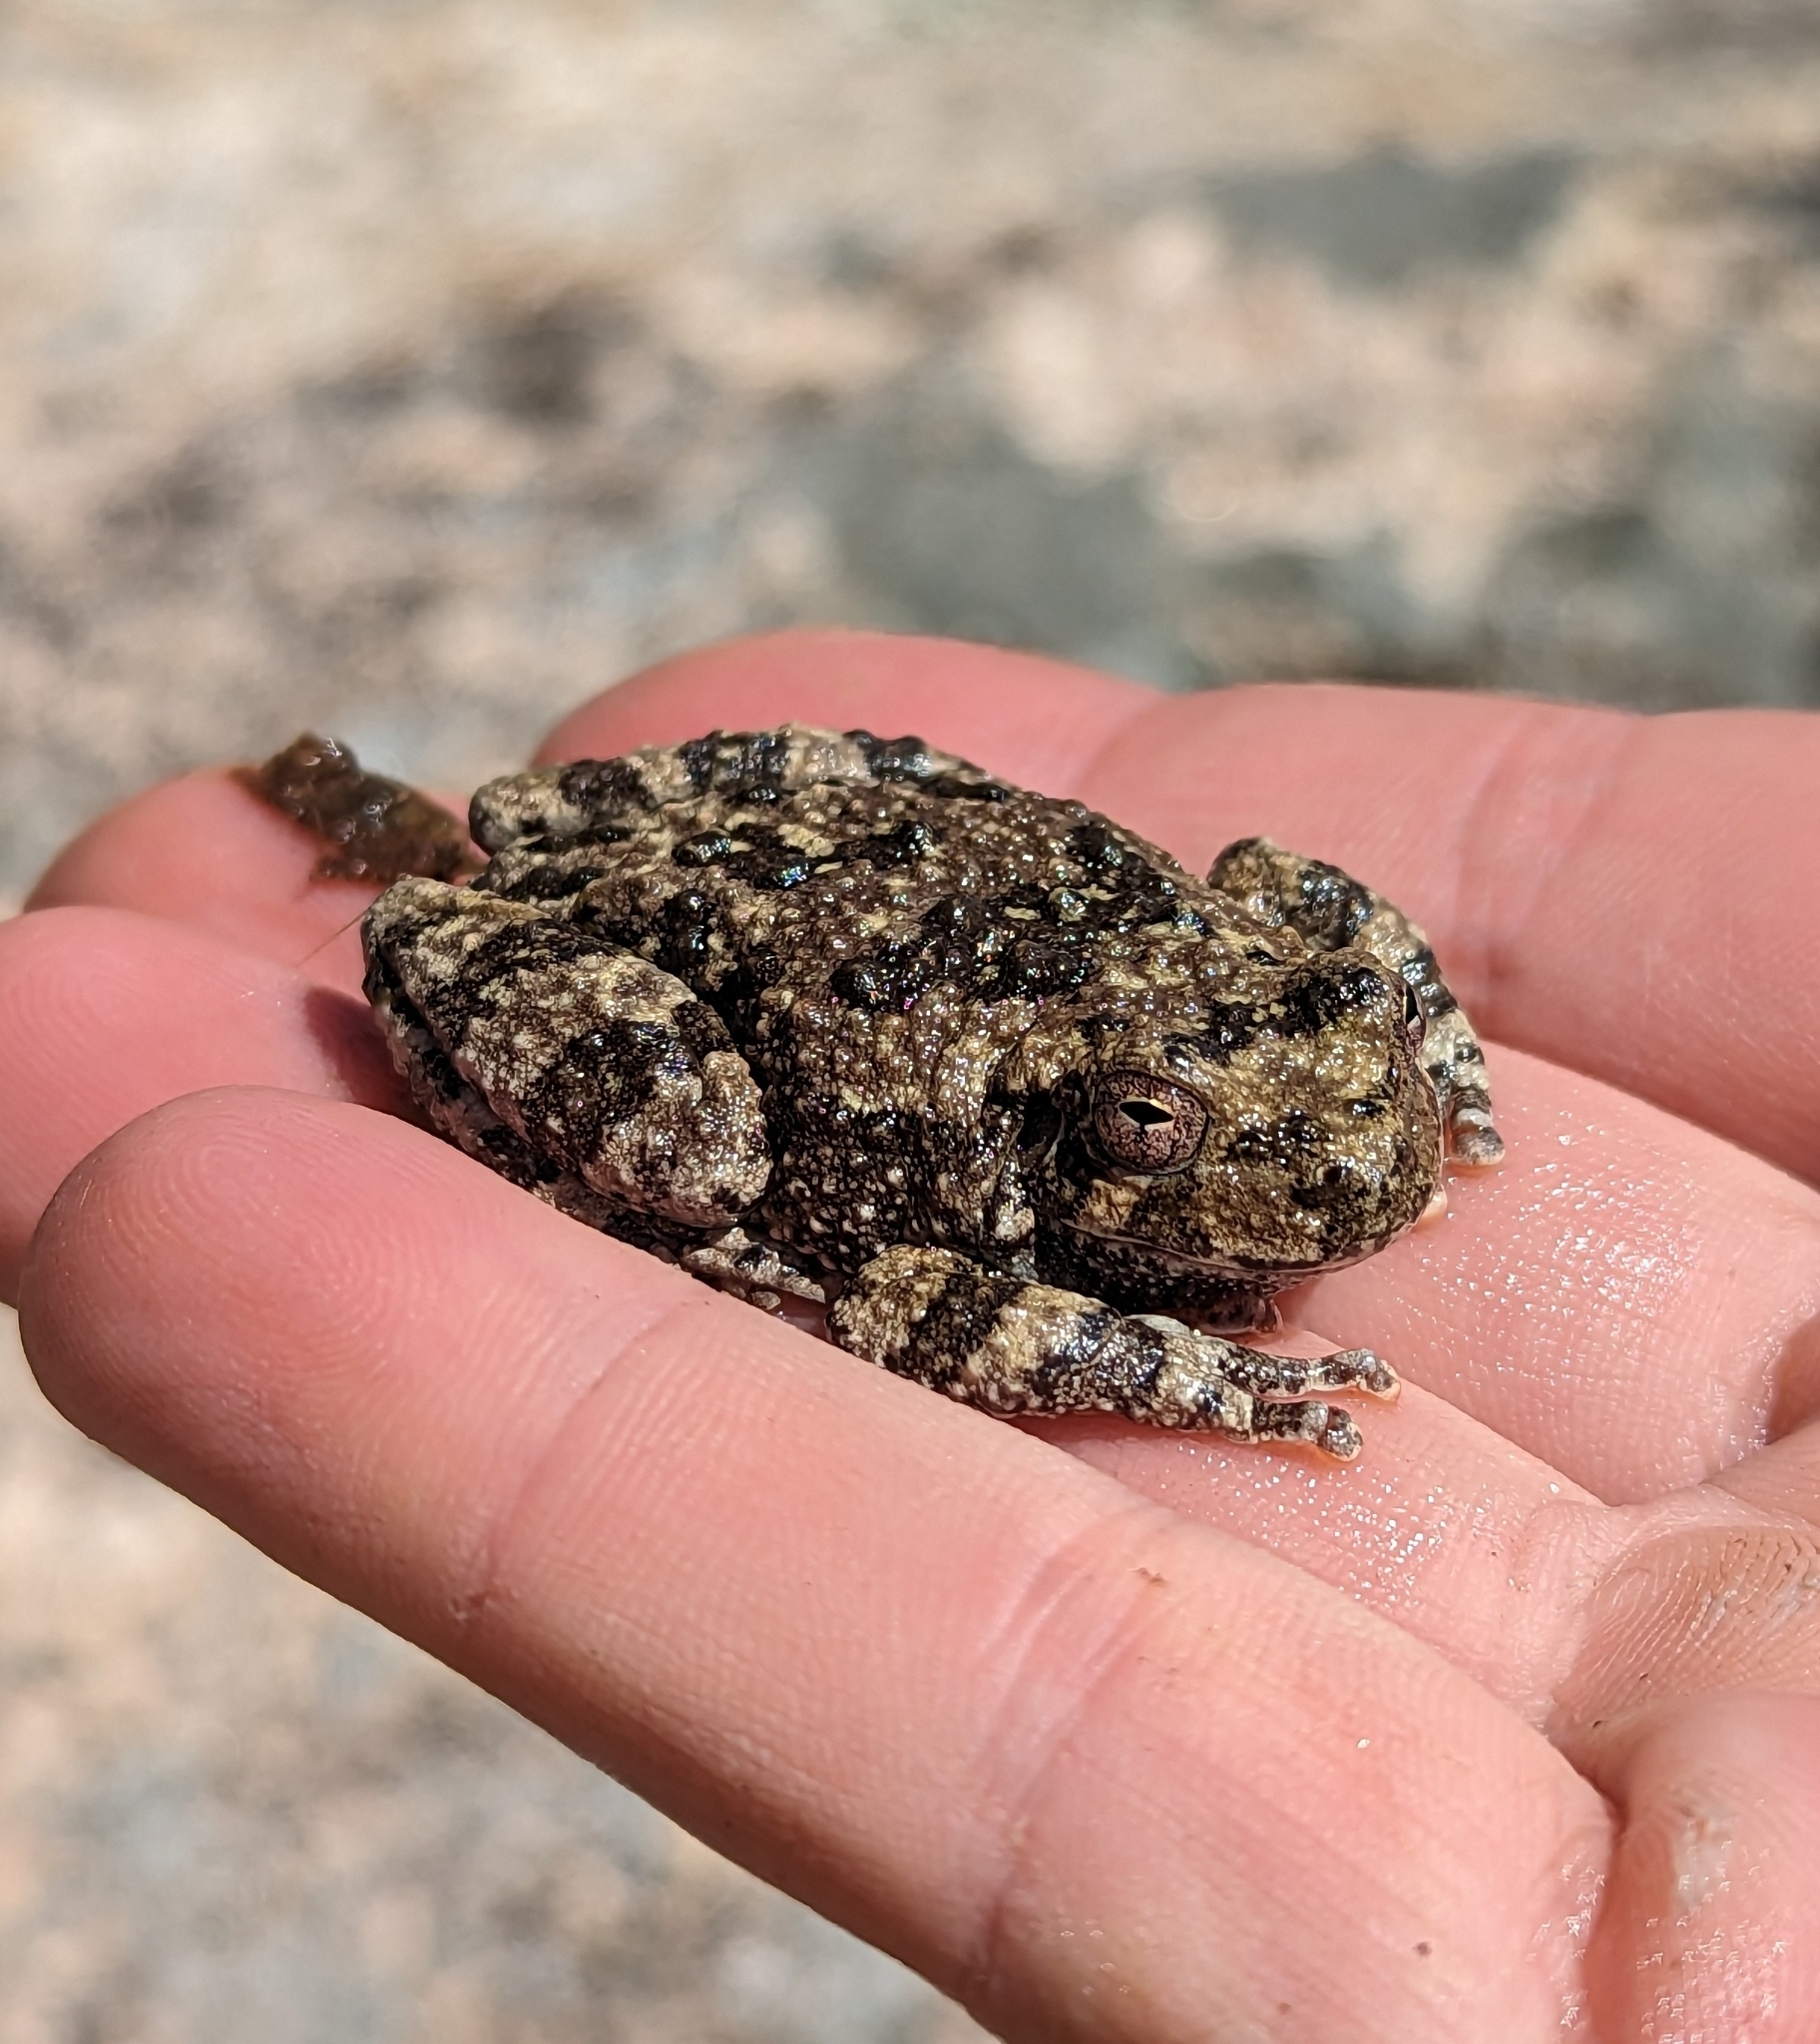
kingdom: Animalia
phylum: Chordata
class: Amphibia
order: Anura
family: Hylidae
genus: Dryophytes
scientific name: Dryophytes arenicolor
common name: Canyon treefrog
